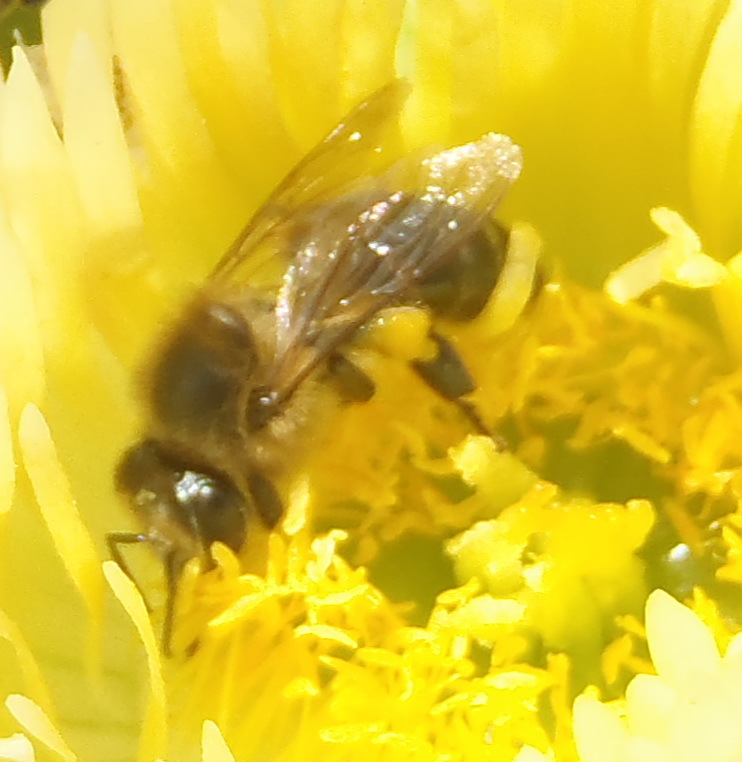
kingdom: Animalia
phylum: Arthropoda
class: Insecta
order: Hymenoptera
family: Apidae
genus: Apis
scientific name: Apis mellifera
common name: Honey bee
